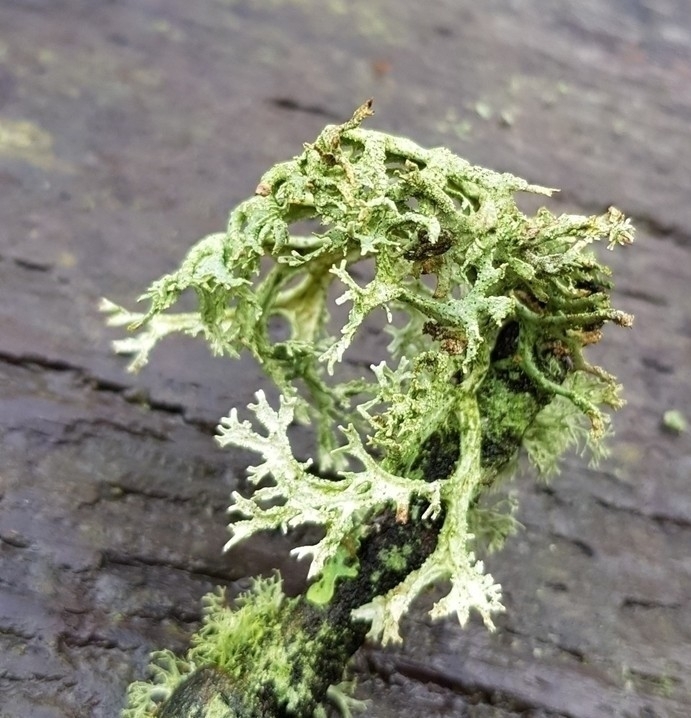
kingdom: Fungi
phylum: Ascomycota
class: Lecanoromycetes
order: Lecanorales
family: Parmeliaceae
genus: Evernia
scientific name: Evernia prunastri
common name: Oak moss
